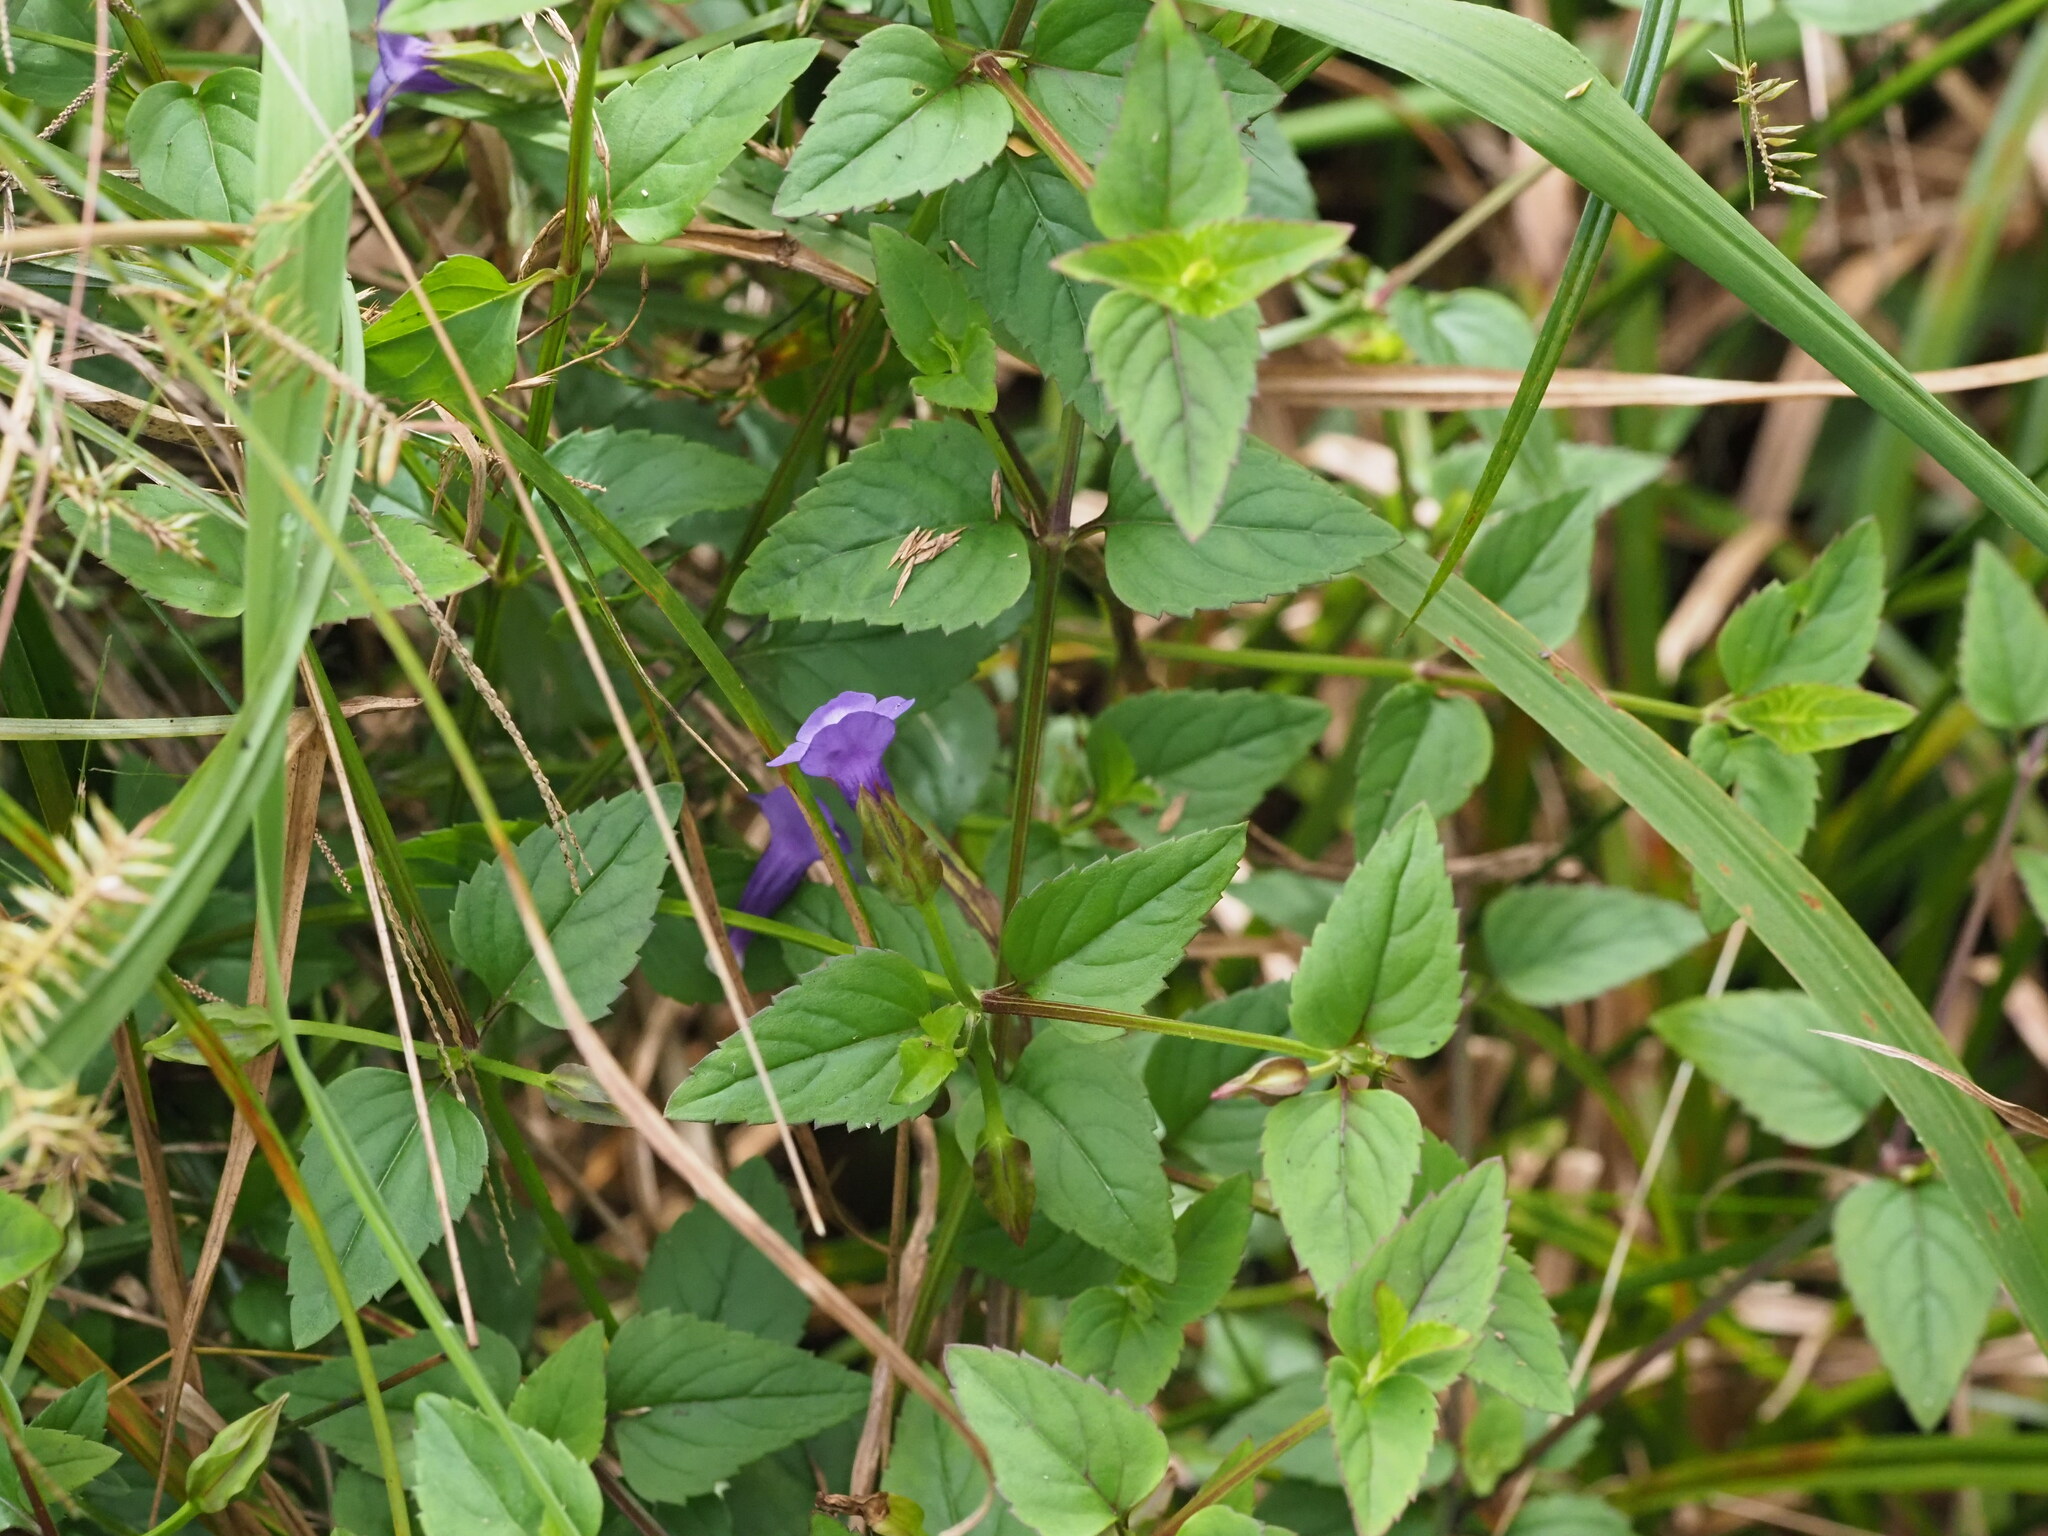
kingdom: Plantae
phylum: Tracheophyta
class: Magnoliopsida
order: Lamiales
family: Linderniaceae
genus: Torenia
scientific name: Torenia asiatica
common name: Wishbone flower
